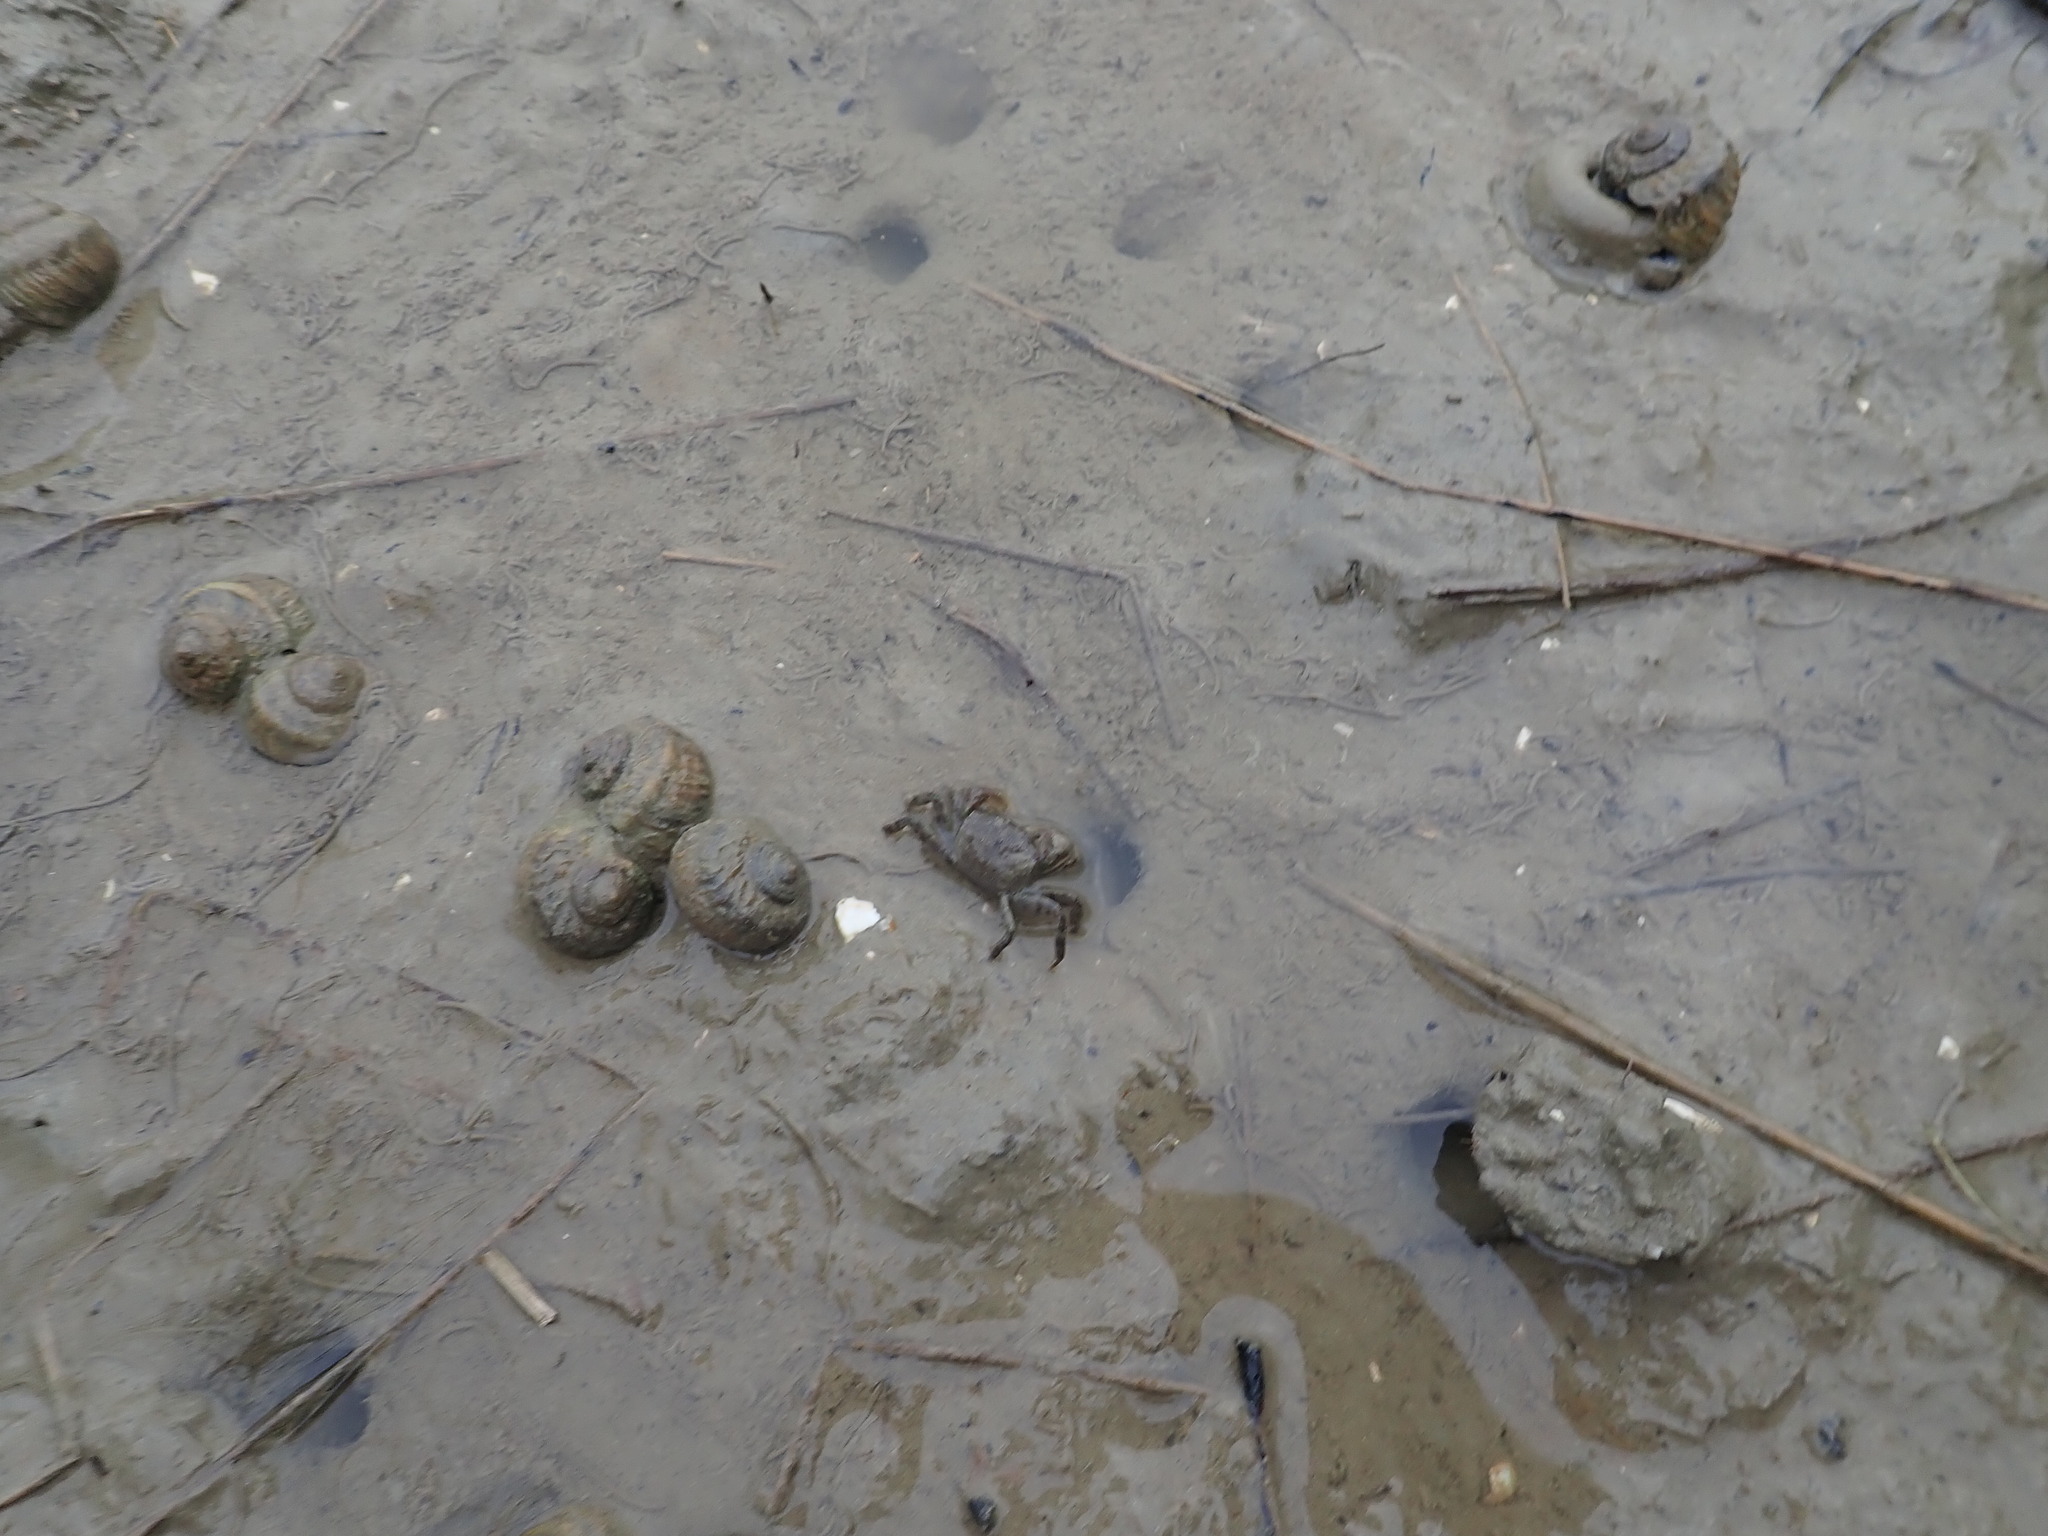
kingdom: Animalia
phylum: Mollusca
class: Gastropoda
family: Amphibolidae
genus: Amphibola
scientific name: Amphibola crenata
